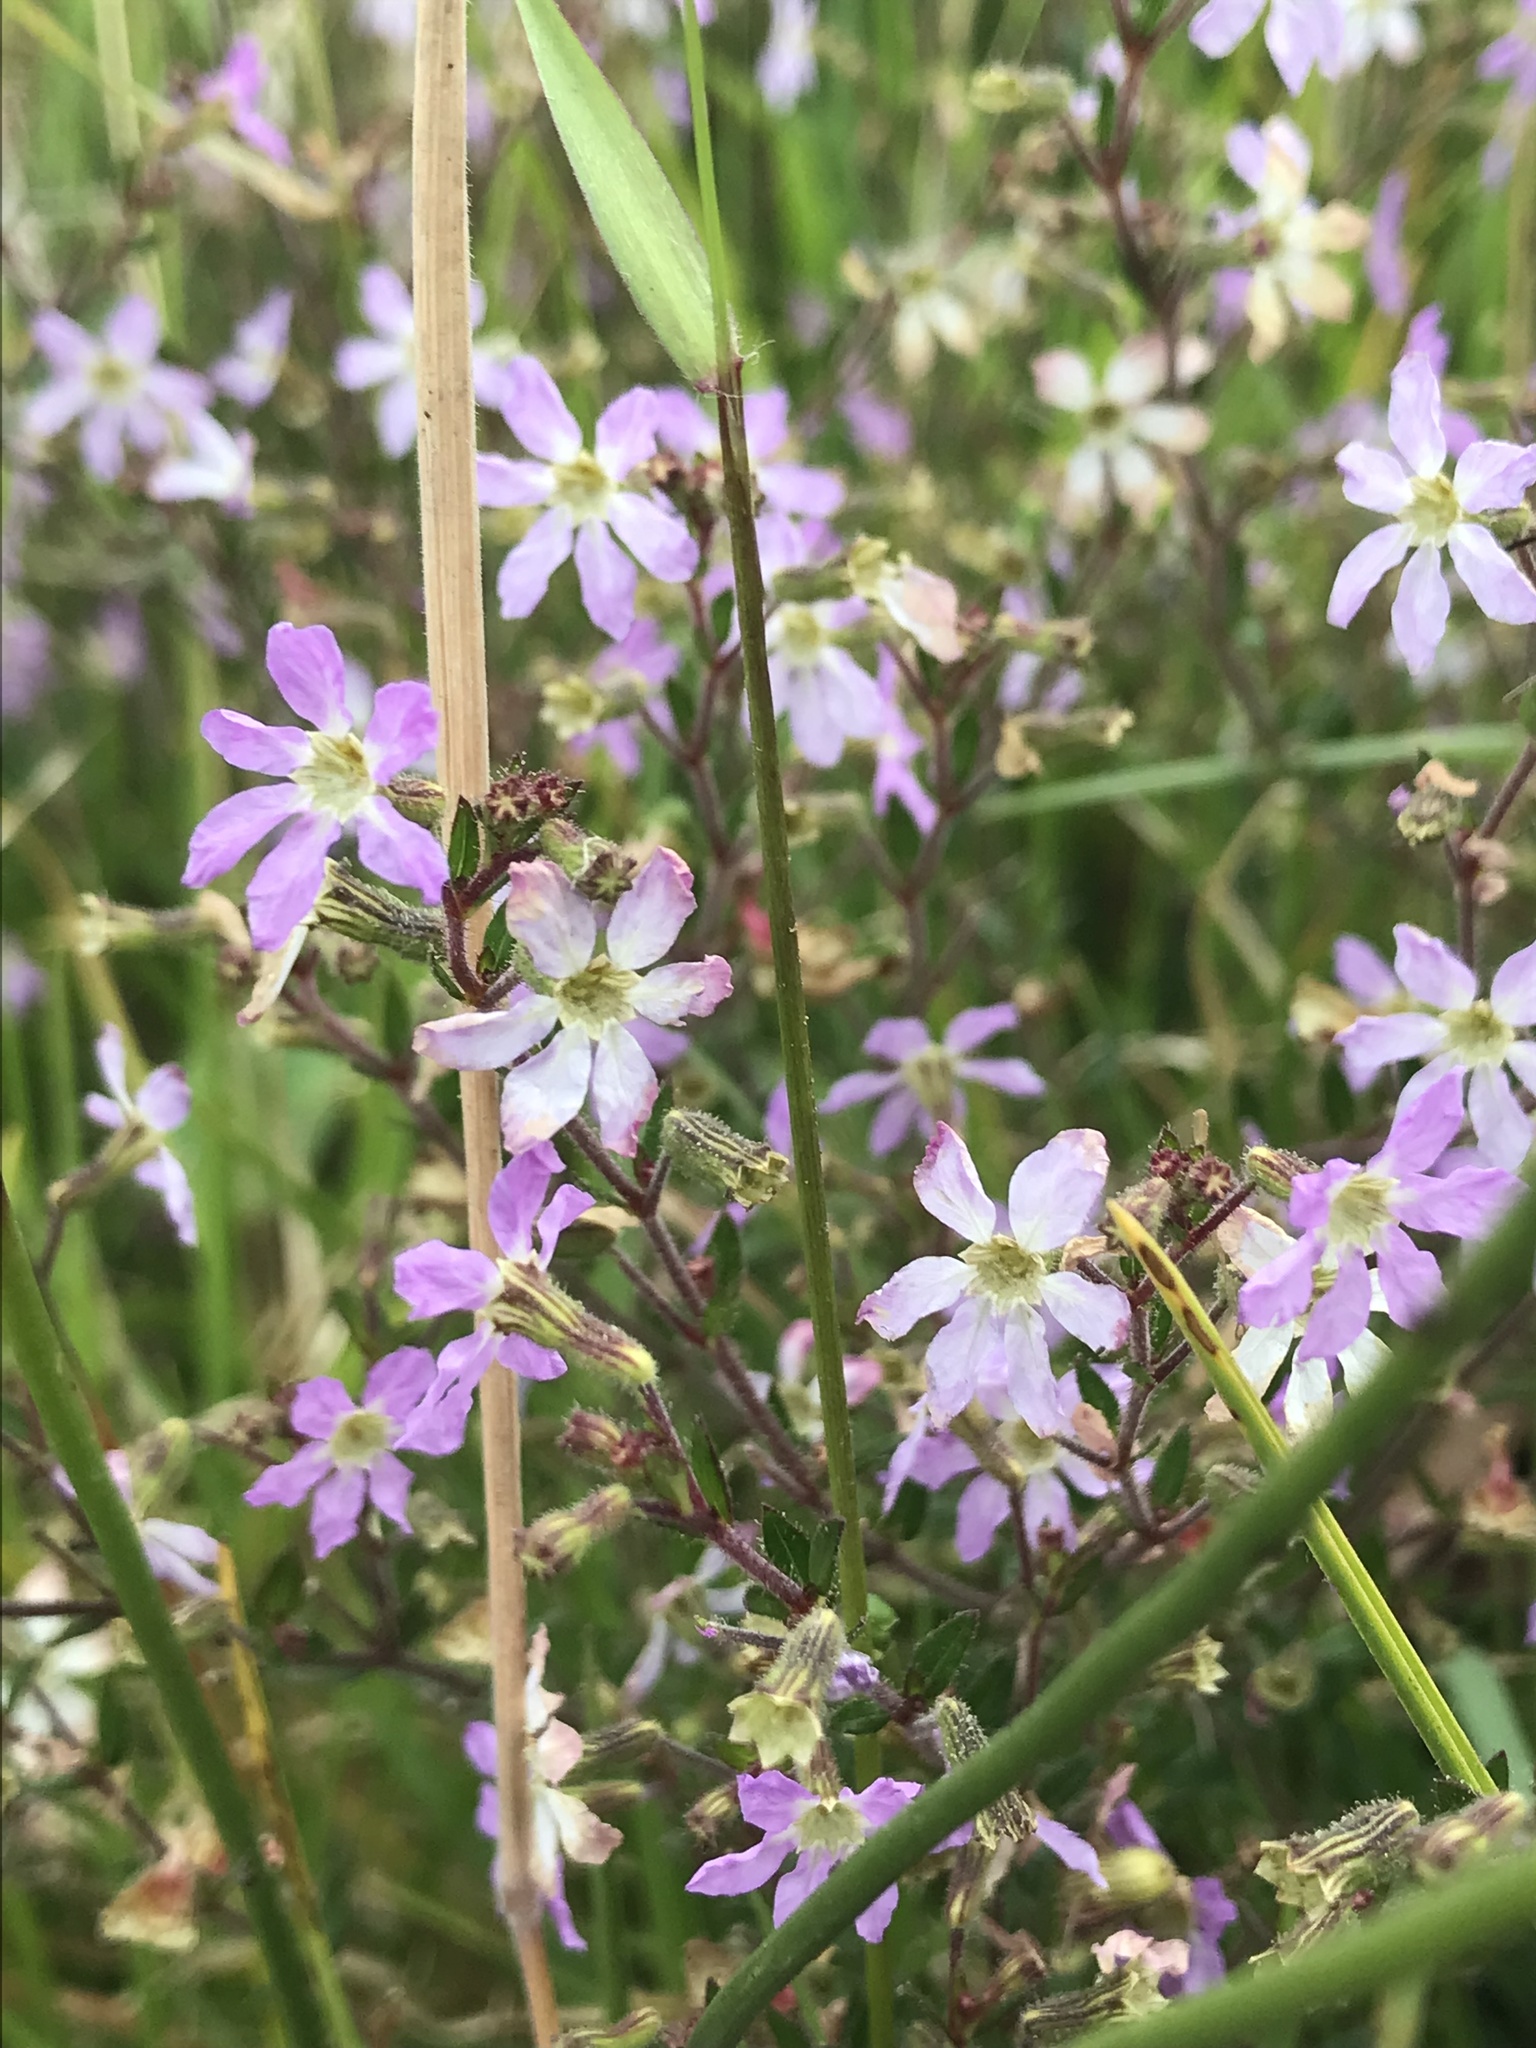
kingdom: Plantae
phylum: Tracheophyta
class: Magnoliopsida
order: Myrtales
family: Lythraceae
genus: Cuphea
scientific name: Cuphea ciliata
